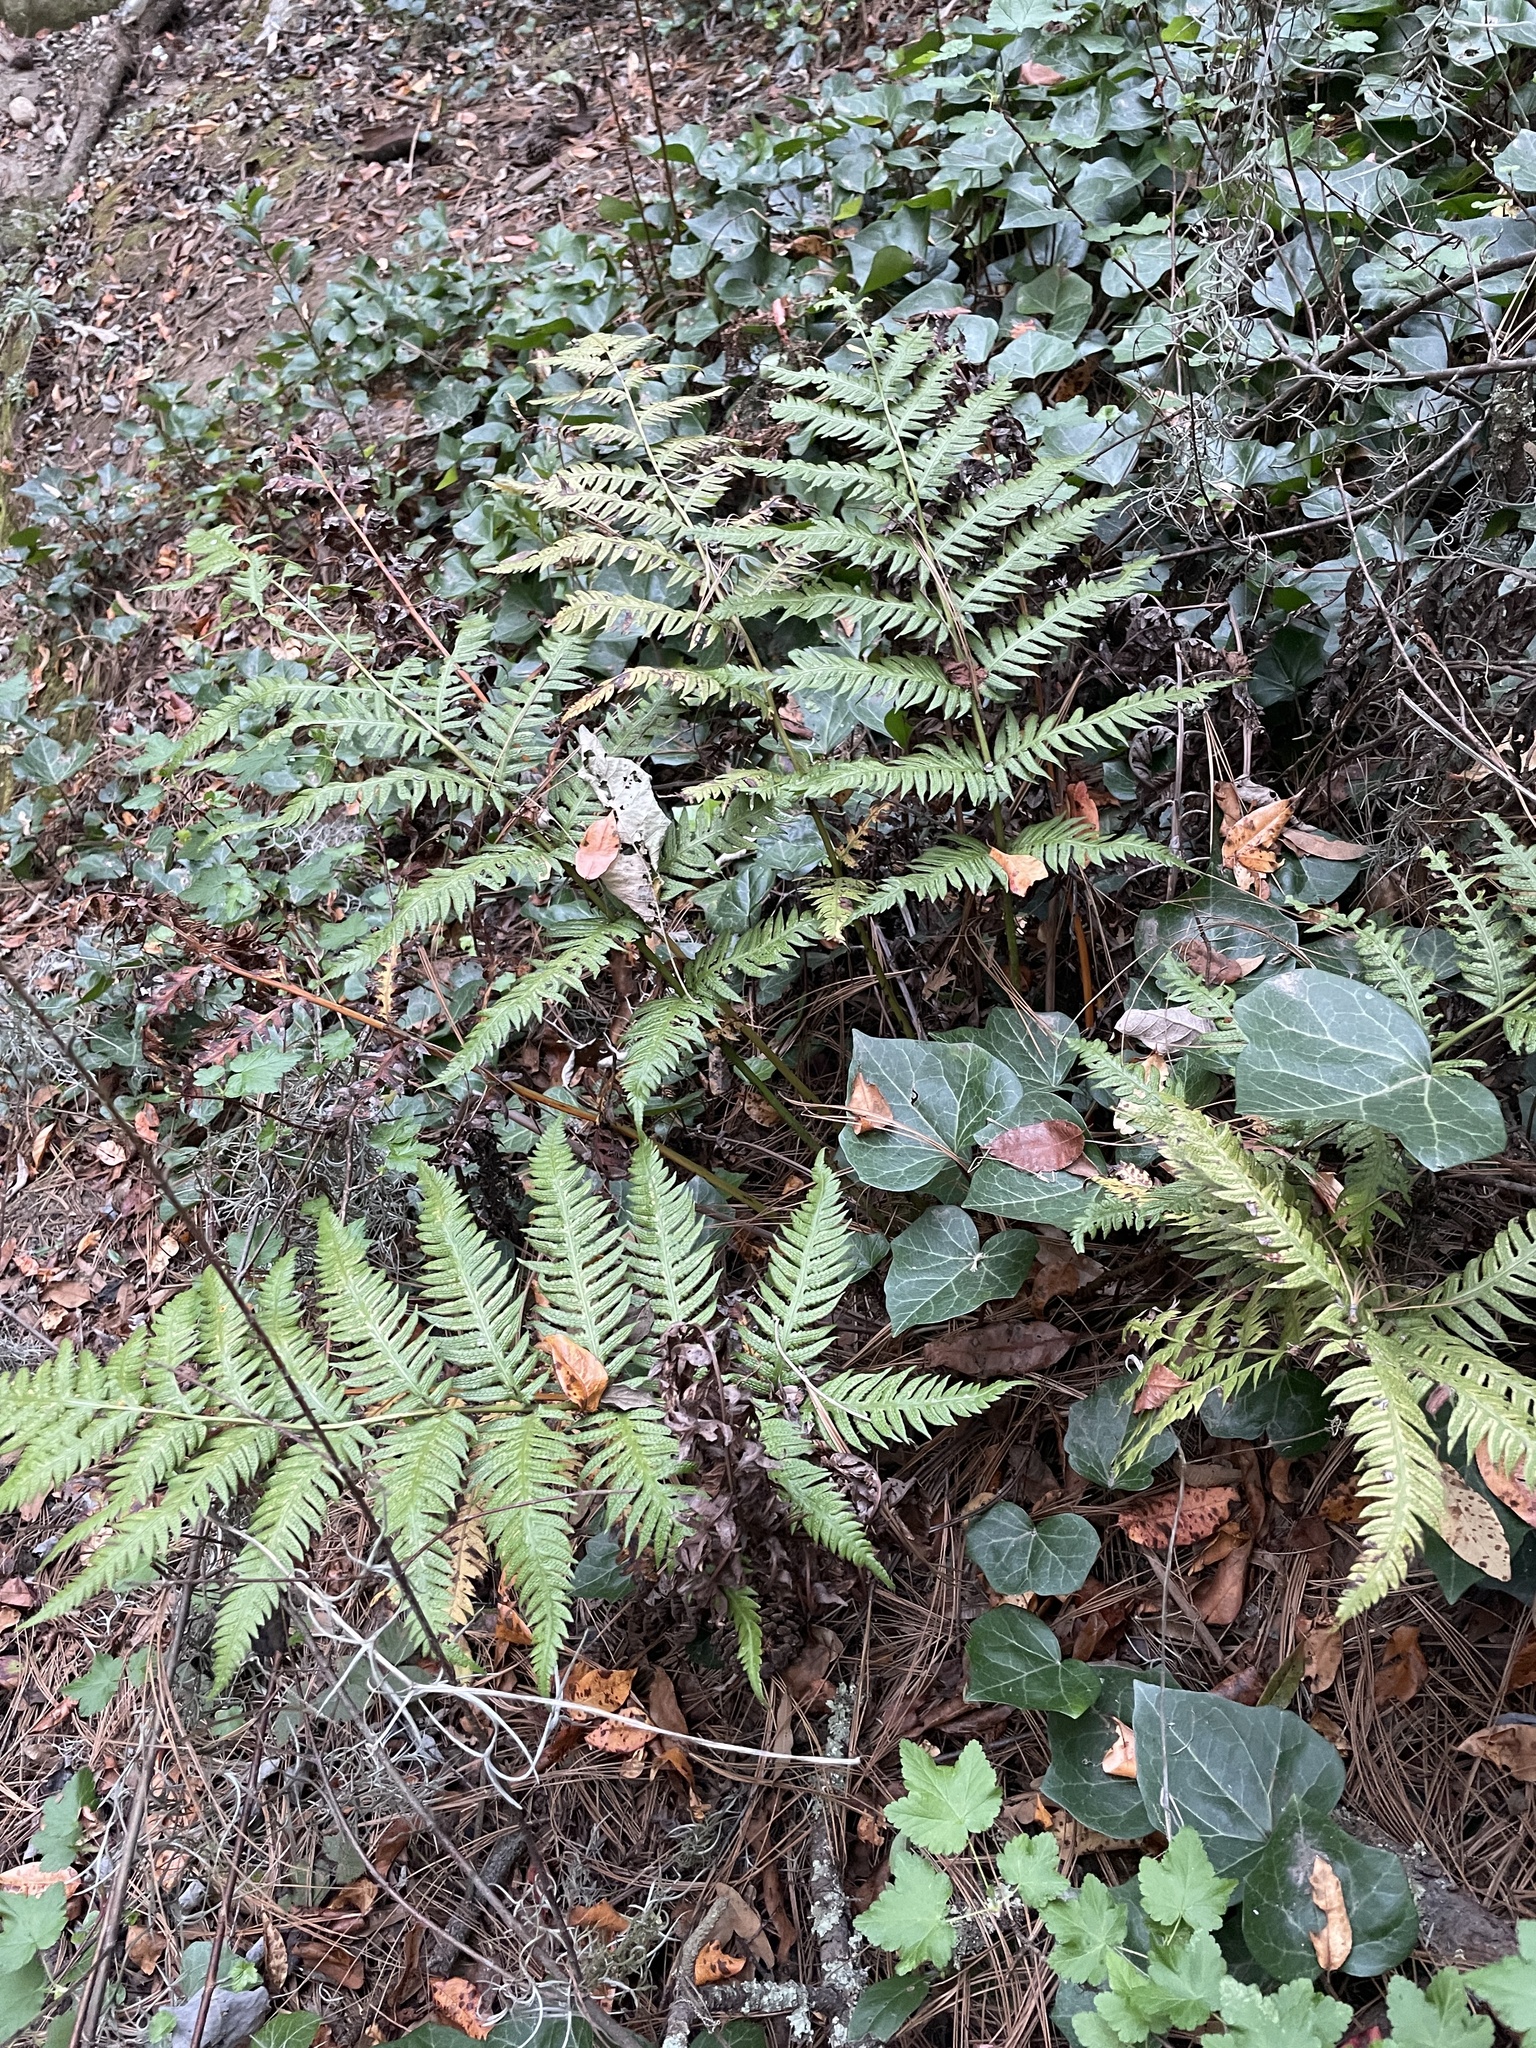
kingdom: Plantae
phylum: Tracheophyta
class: Polypodiopsida
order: Polypodiales
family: Blechnaceae
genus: Woodwardia
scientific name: Woodwardia semicordata
